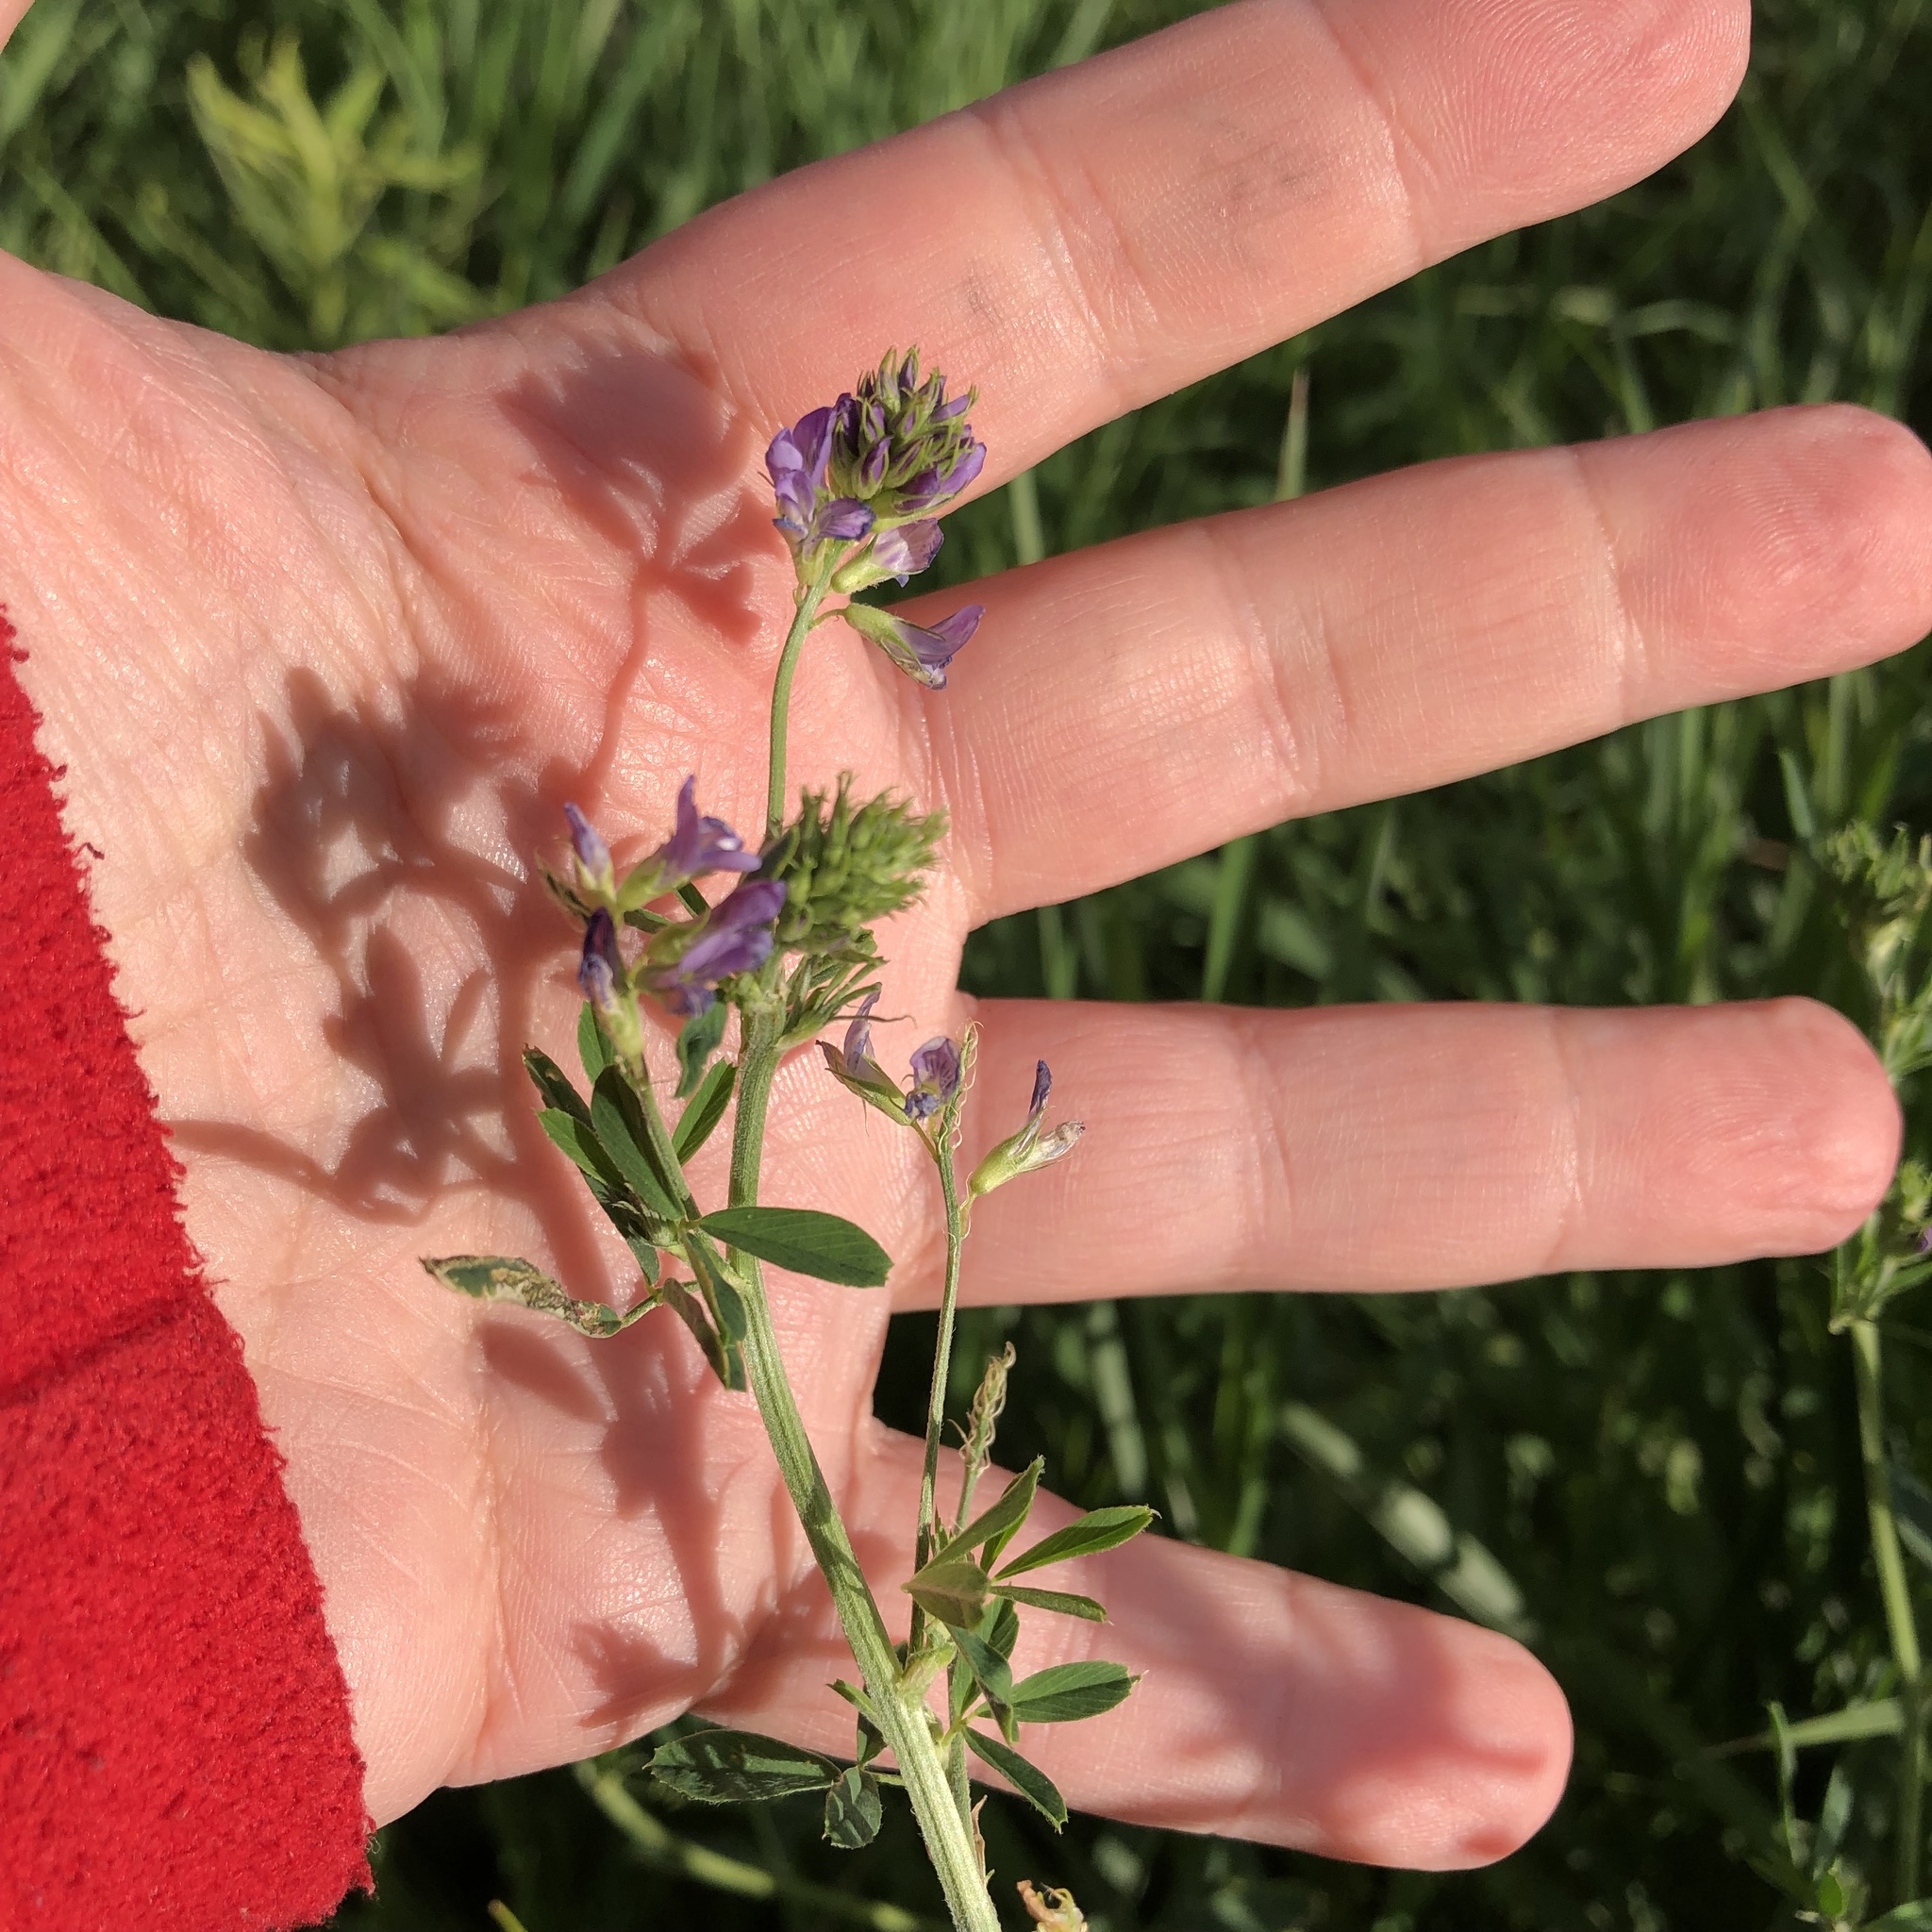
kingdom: Plantae
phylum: Tracheophyta
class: Magnoliopsida
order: Fabales
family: Fabaceae
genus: Medicago
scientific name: Medicago sativa
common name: Alfalfa
